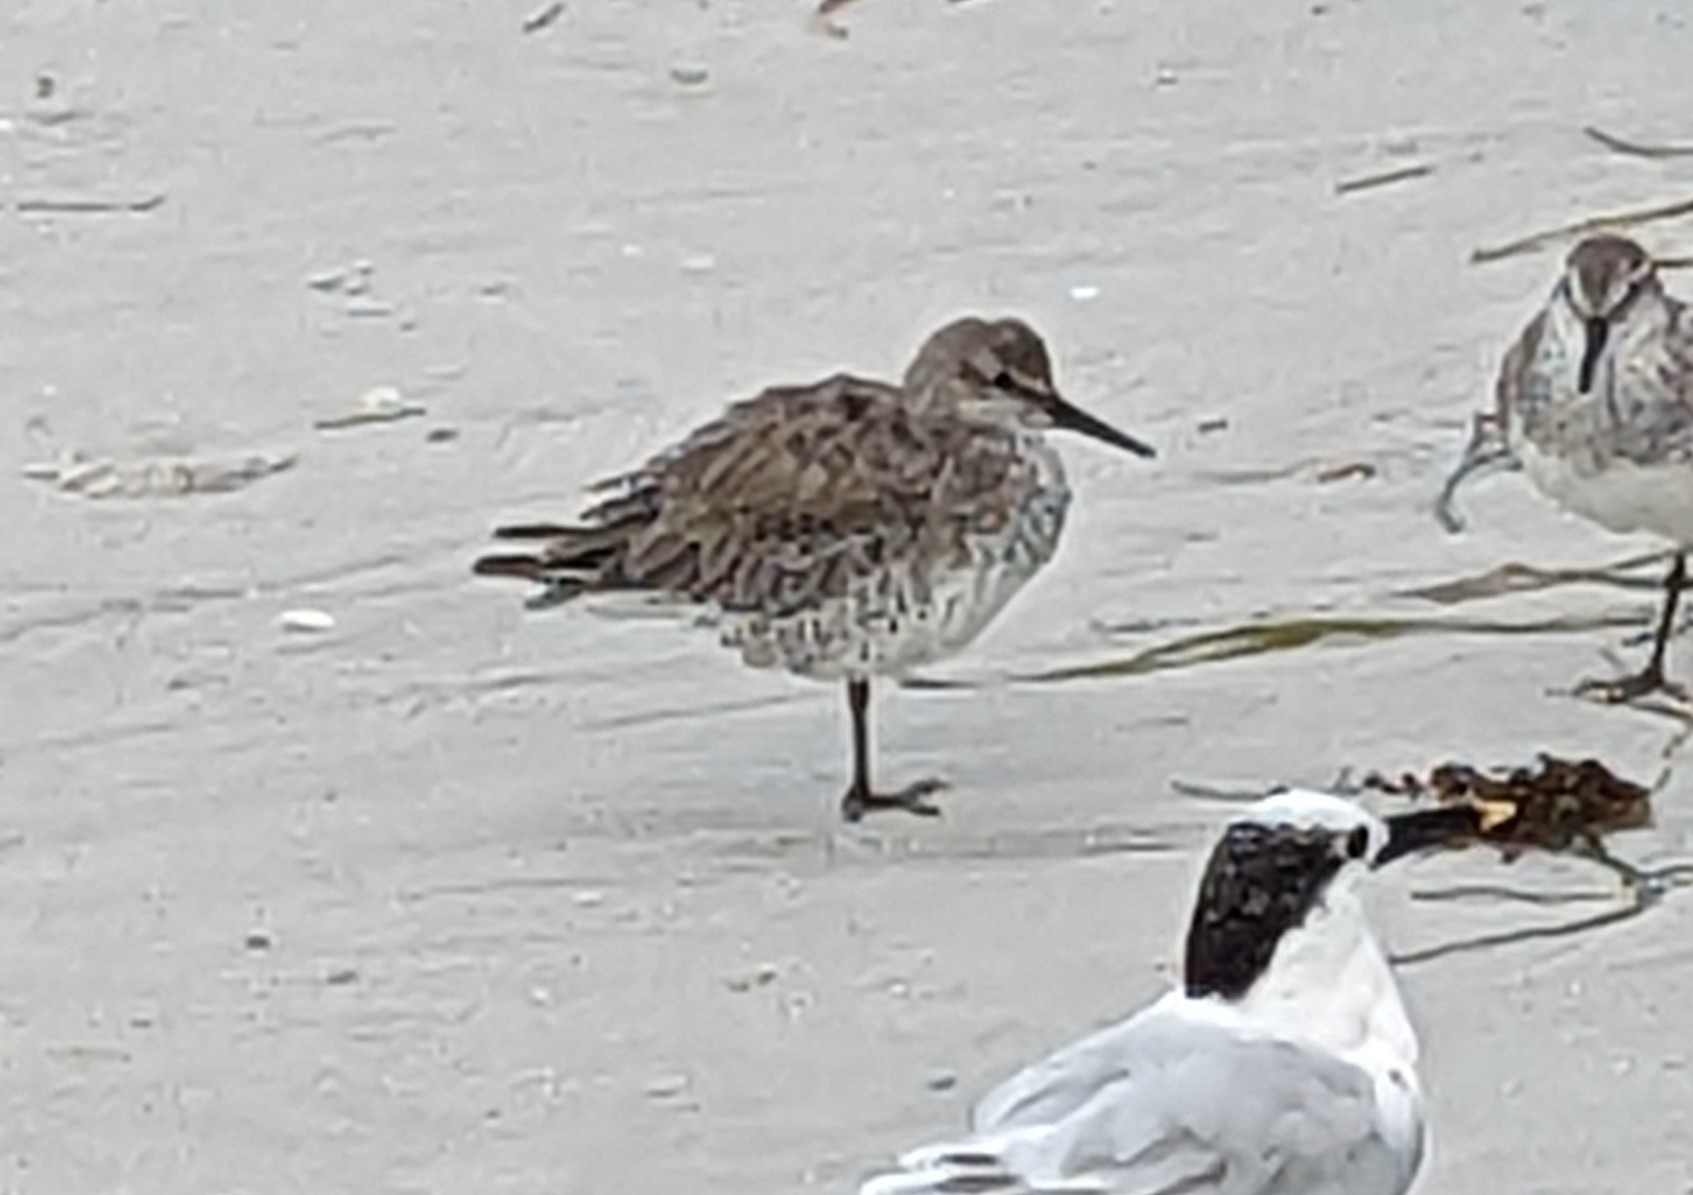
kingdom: Animalia
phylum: Chordata
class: Aves
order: Charadriiformes
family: Scolopacidae
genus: Calidris
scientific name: Calidris canutus
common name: Red knot
